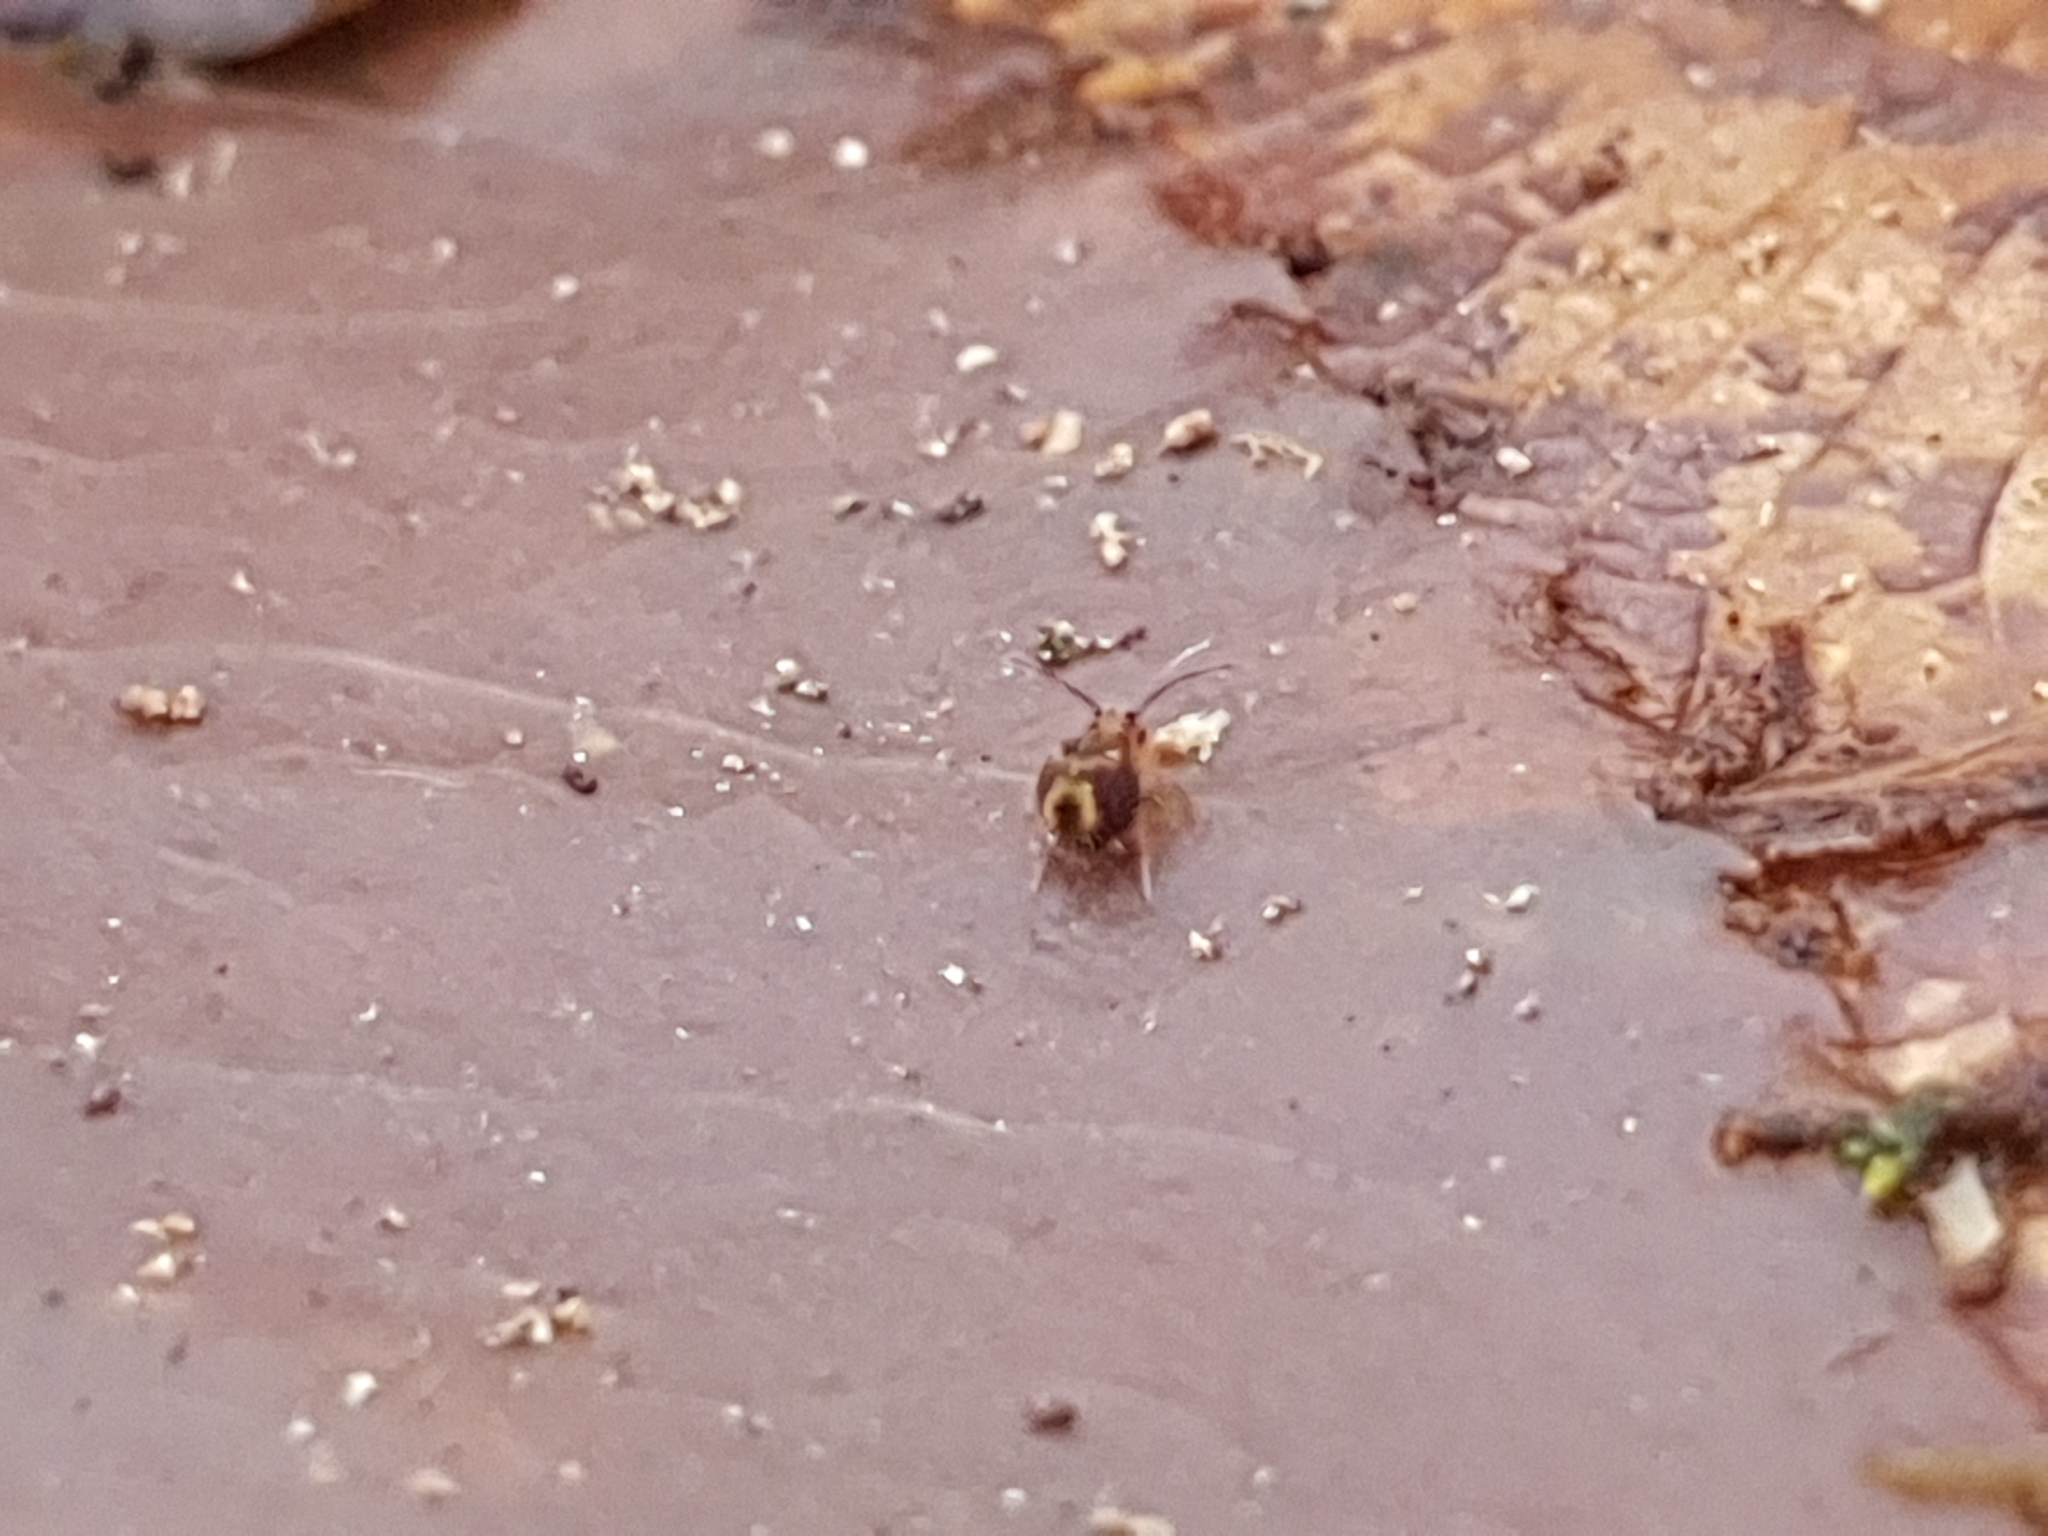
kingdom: Animalia
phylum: Arthropoda
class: Collembola
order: Symphypleona
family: Dicyrtomidae
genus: Dicyrtomina
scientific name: Dicyrtomina ornata
